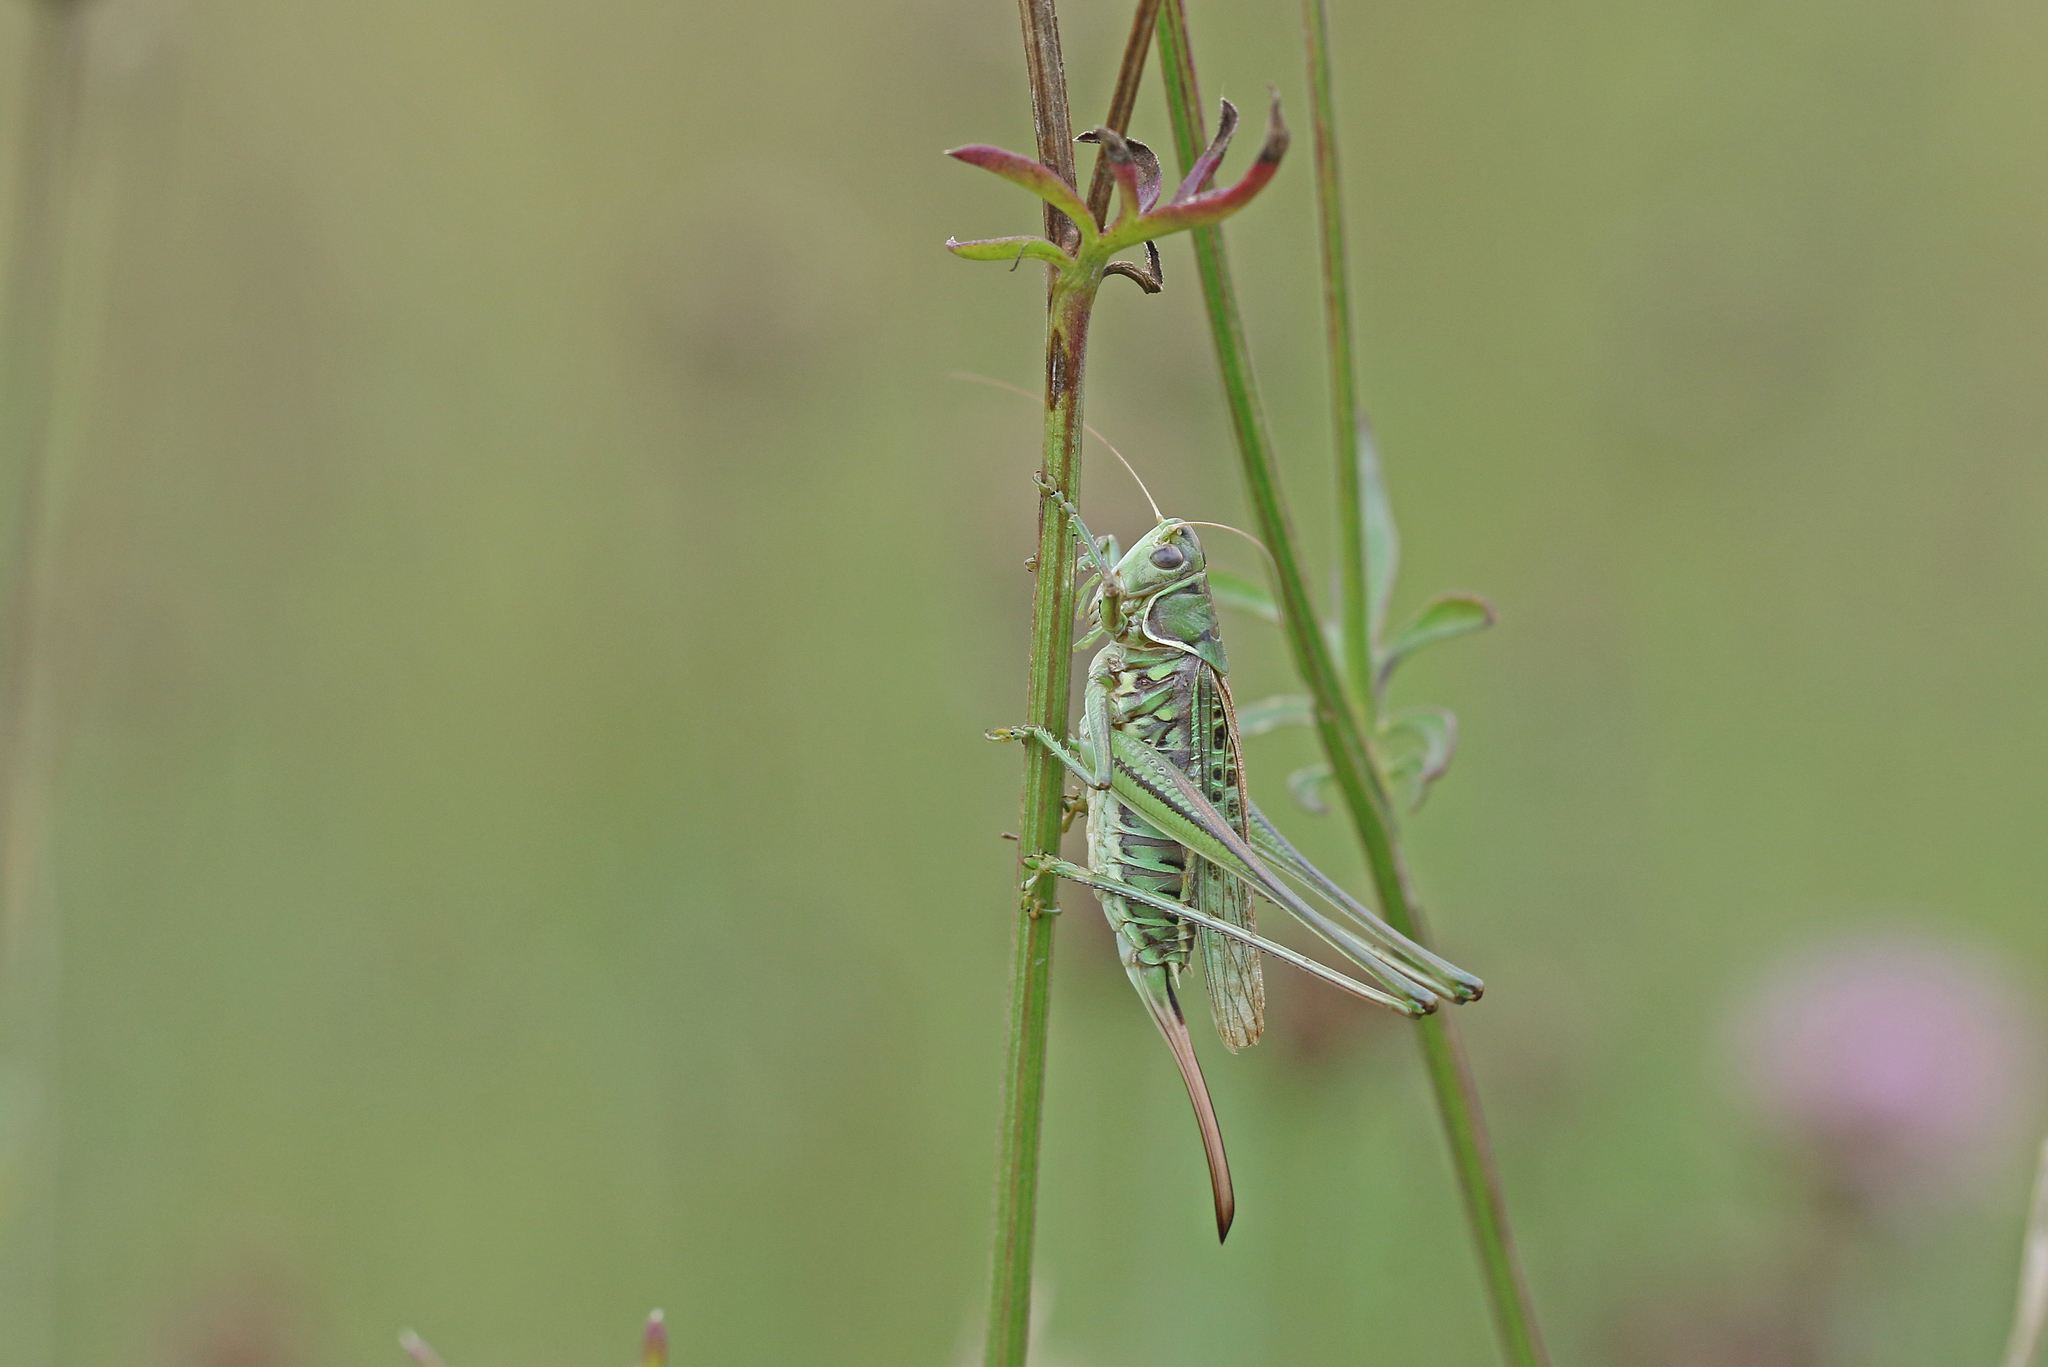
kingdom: Animalia
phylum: Arthropoda
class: Insecta
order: Orthoptera
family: Tettigoniidae
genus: Gampsocleis
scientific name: Gampsocleis glabra
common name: Heath bushcricket
